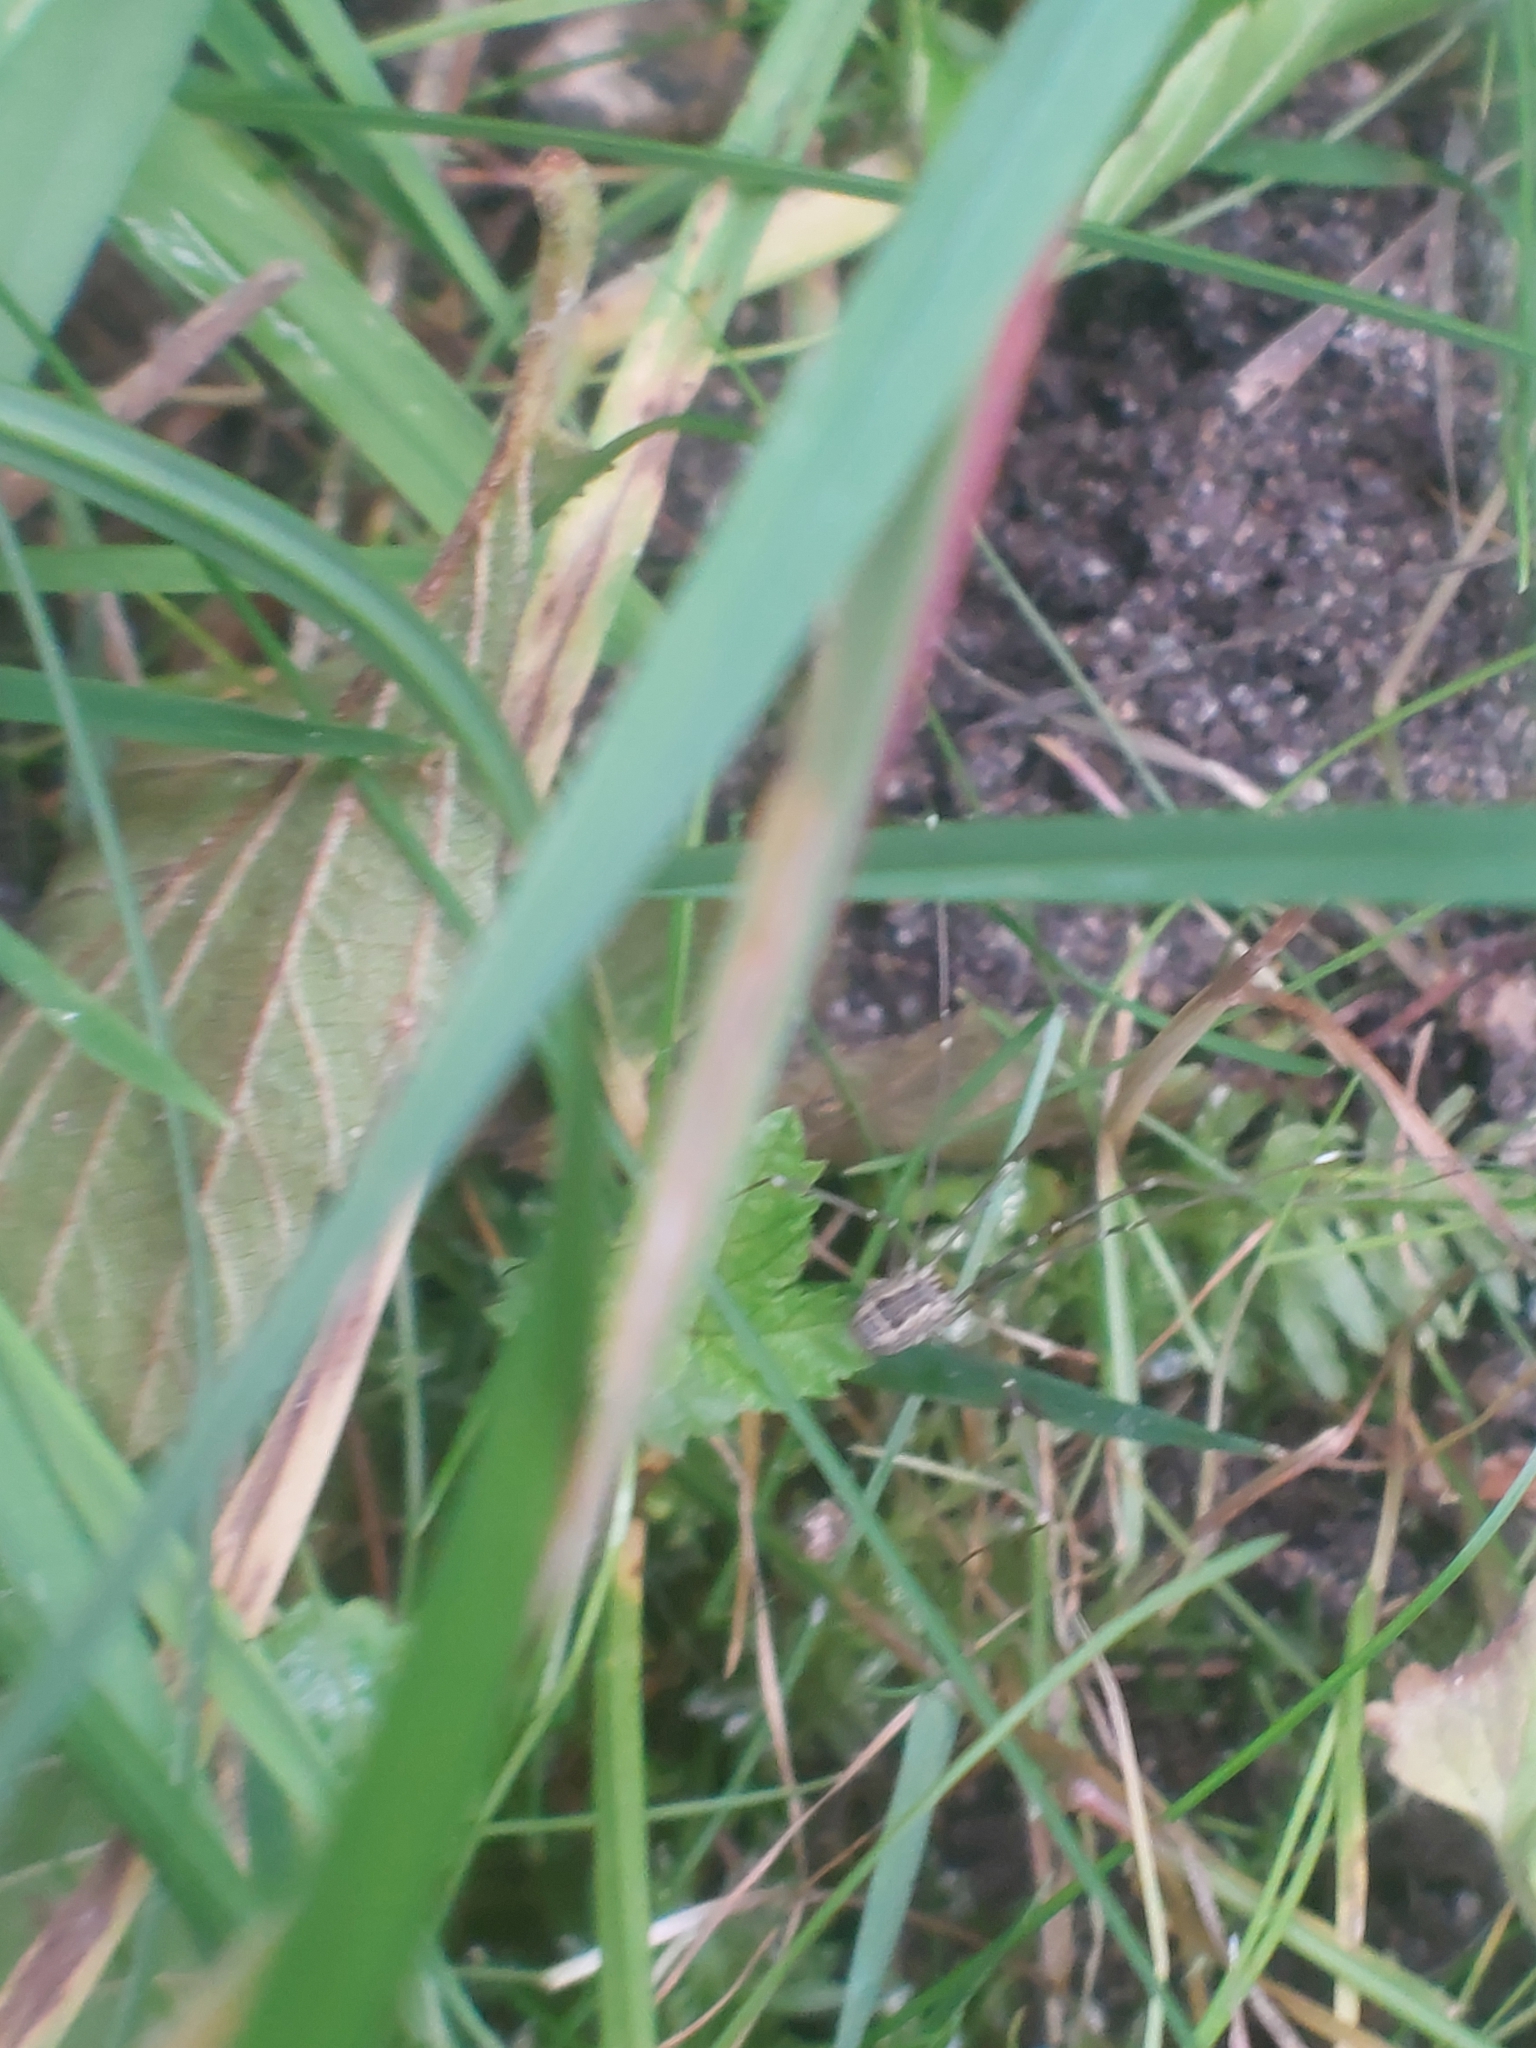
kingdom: Animalia
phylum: Arthropoda
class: Arachnida
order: Opiliones
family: Sclerosomatidae
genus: Leiobunum
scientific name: Leiobunum rotundum
